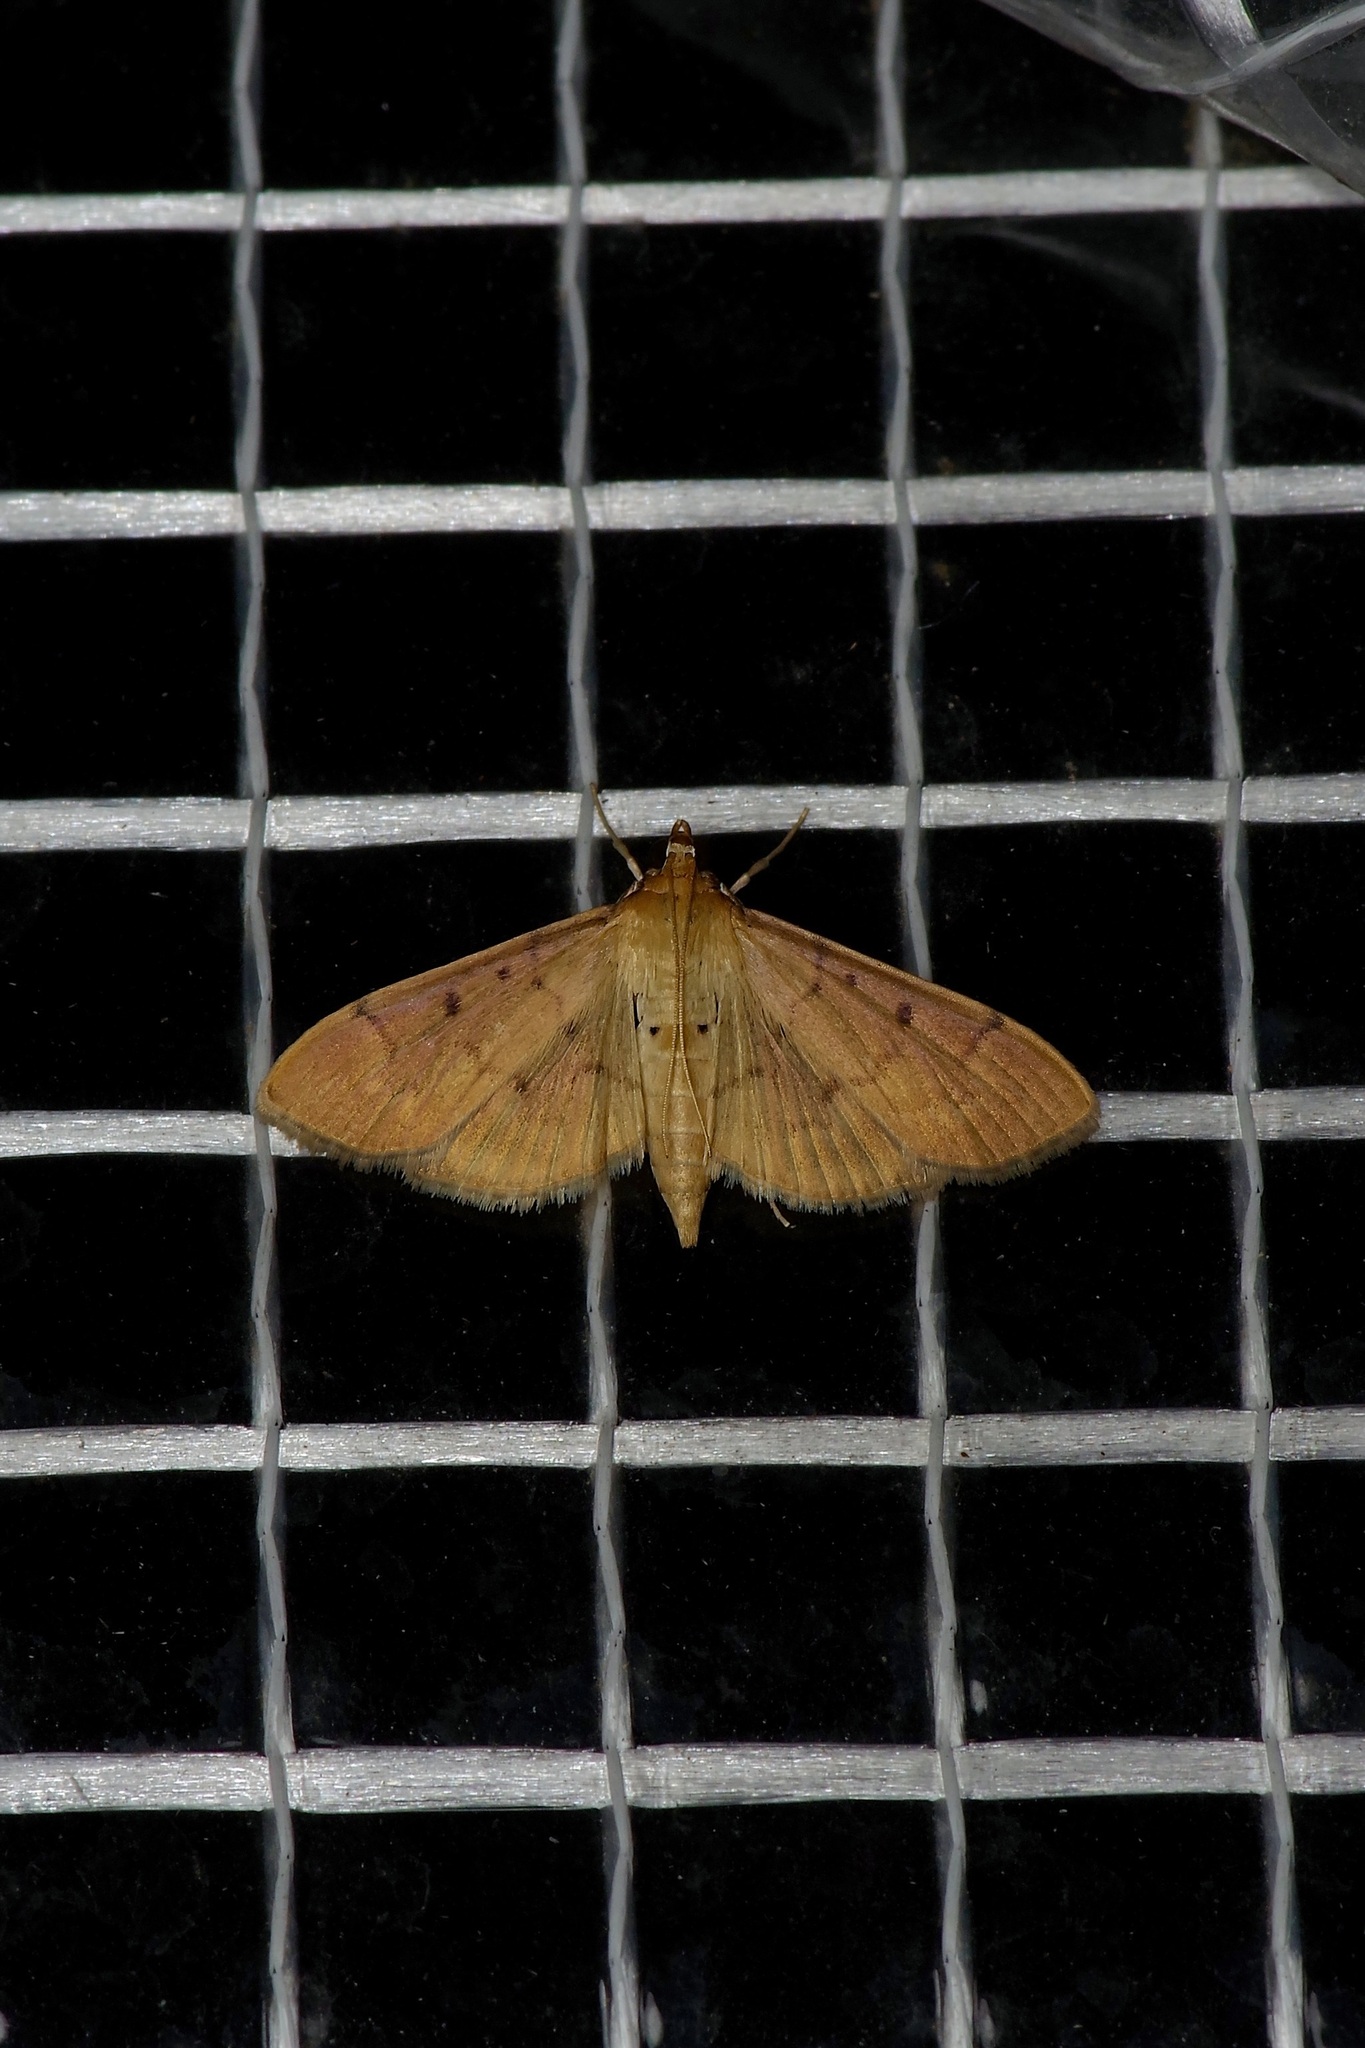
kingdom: Animalia
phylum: Arthropoda
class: Insecta
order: Lepidoptera
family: Crambidae
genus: Herpetogramma
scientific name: Herpetogramma bipunctalis
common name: Southern beet webworm
